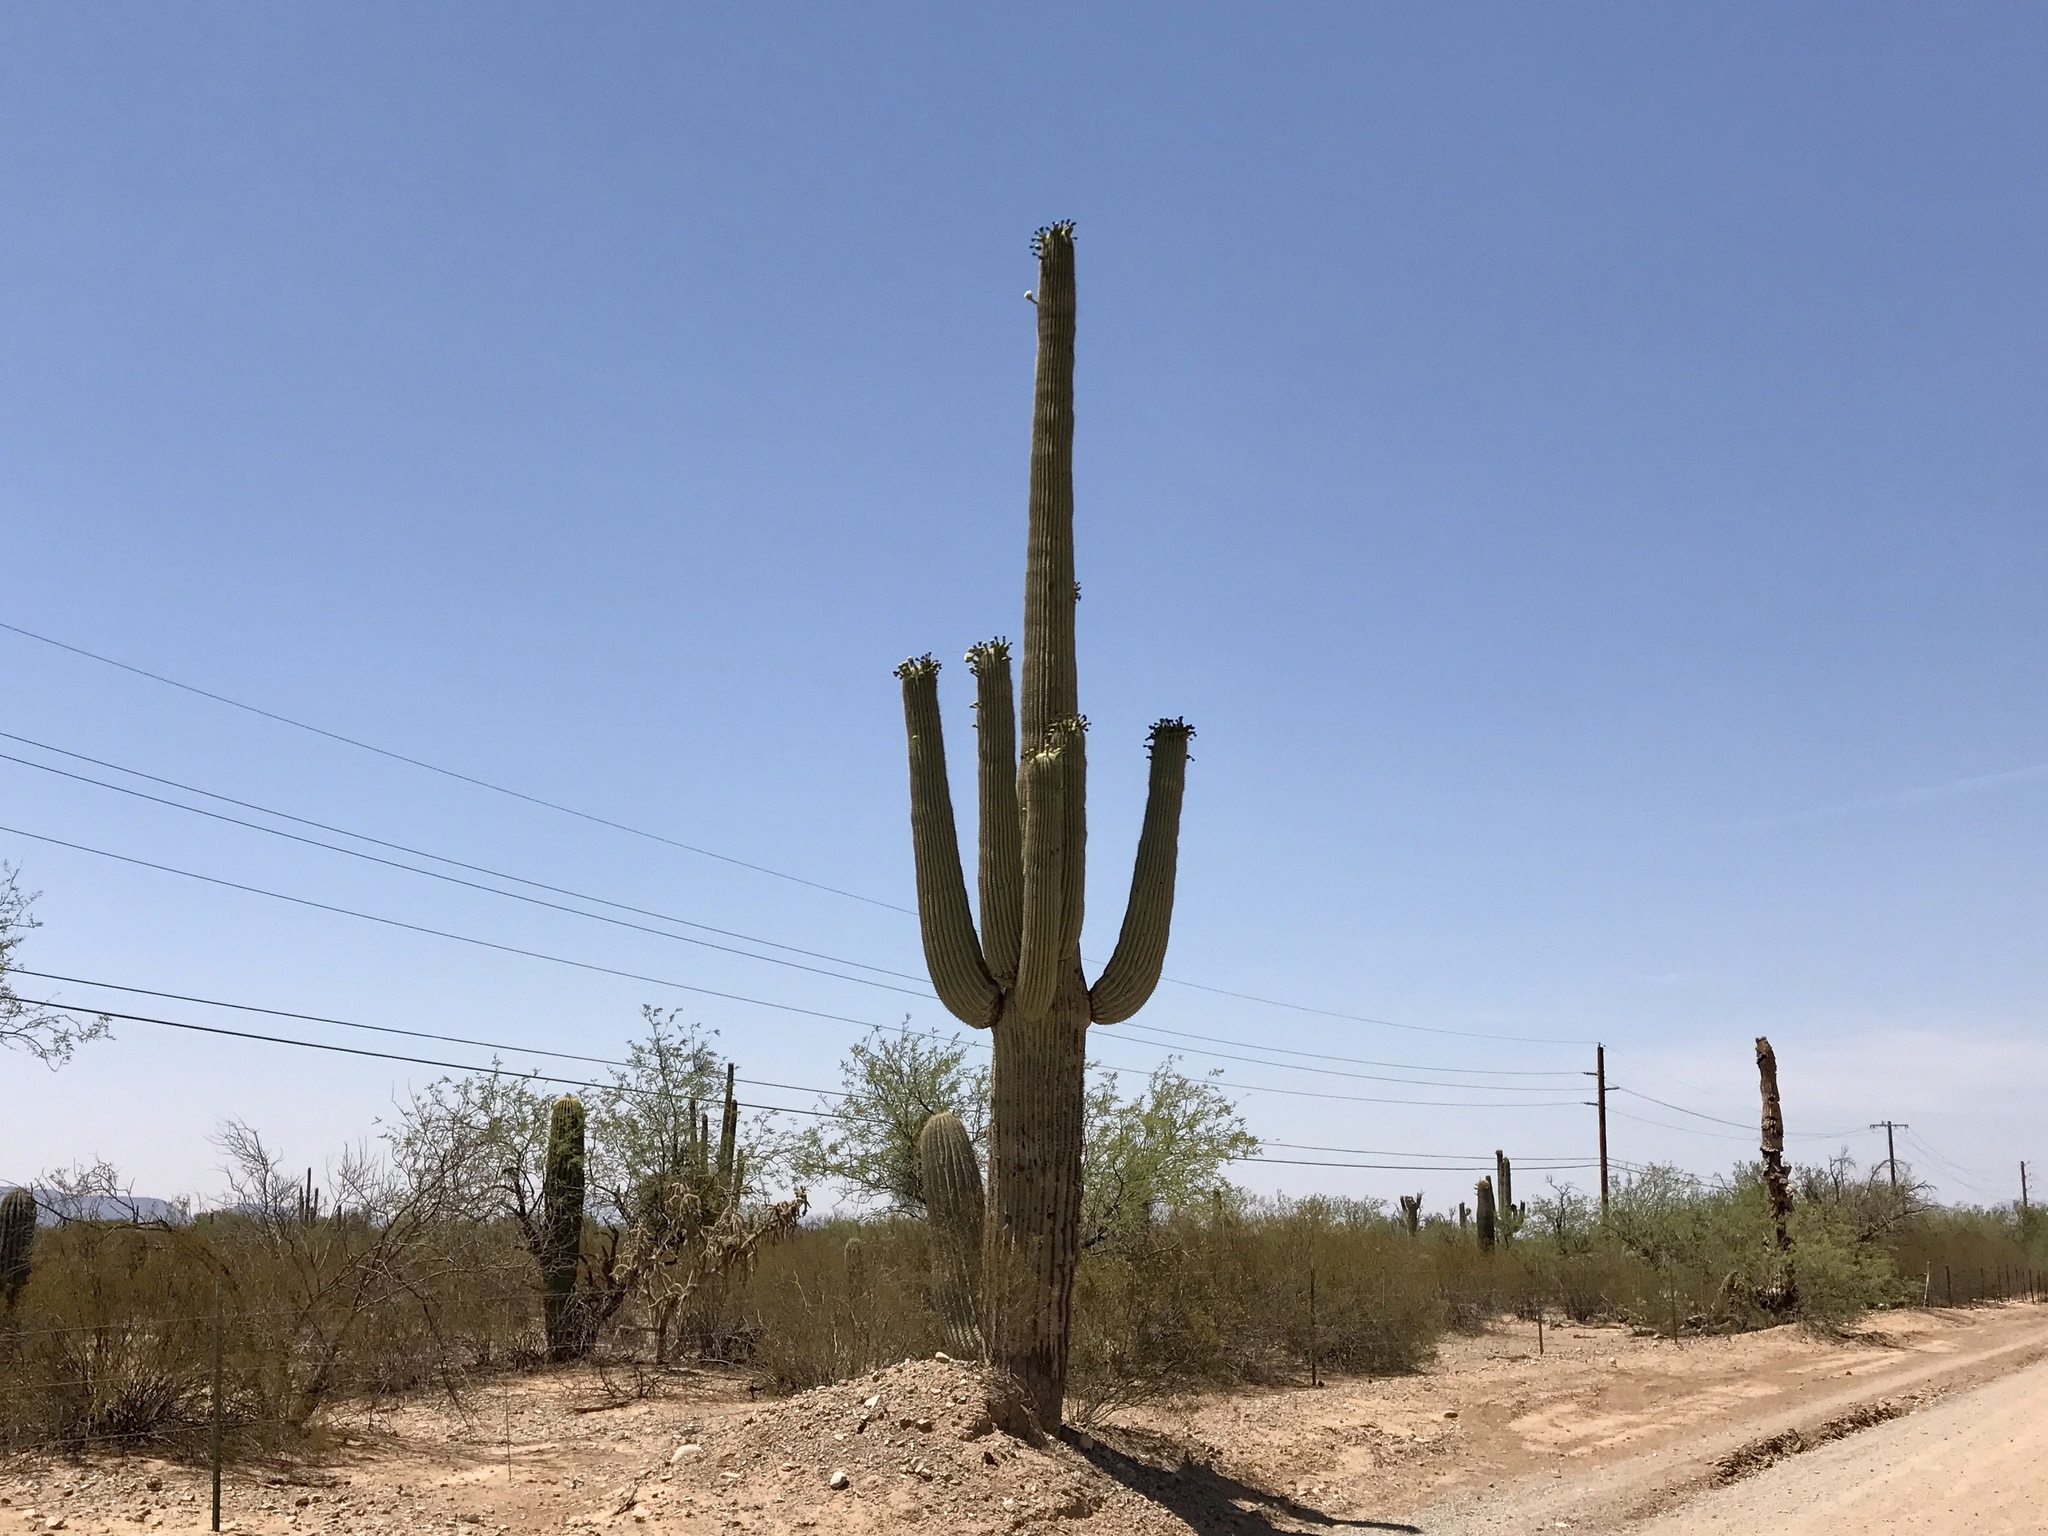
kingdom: Plantae
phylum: Tracheophyta
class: Magnoliopsida
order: Caryophyllales
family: Cactaceae
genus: Carnegiea
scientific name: Carnegiea gigantea
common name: Saguaro
